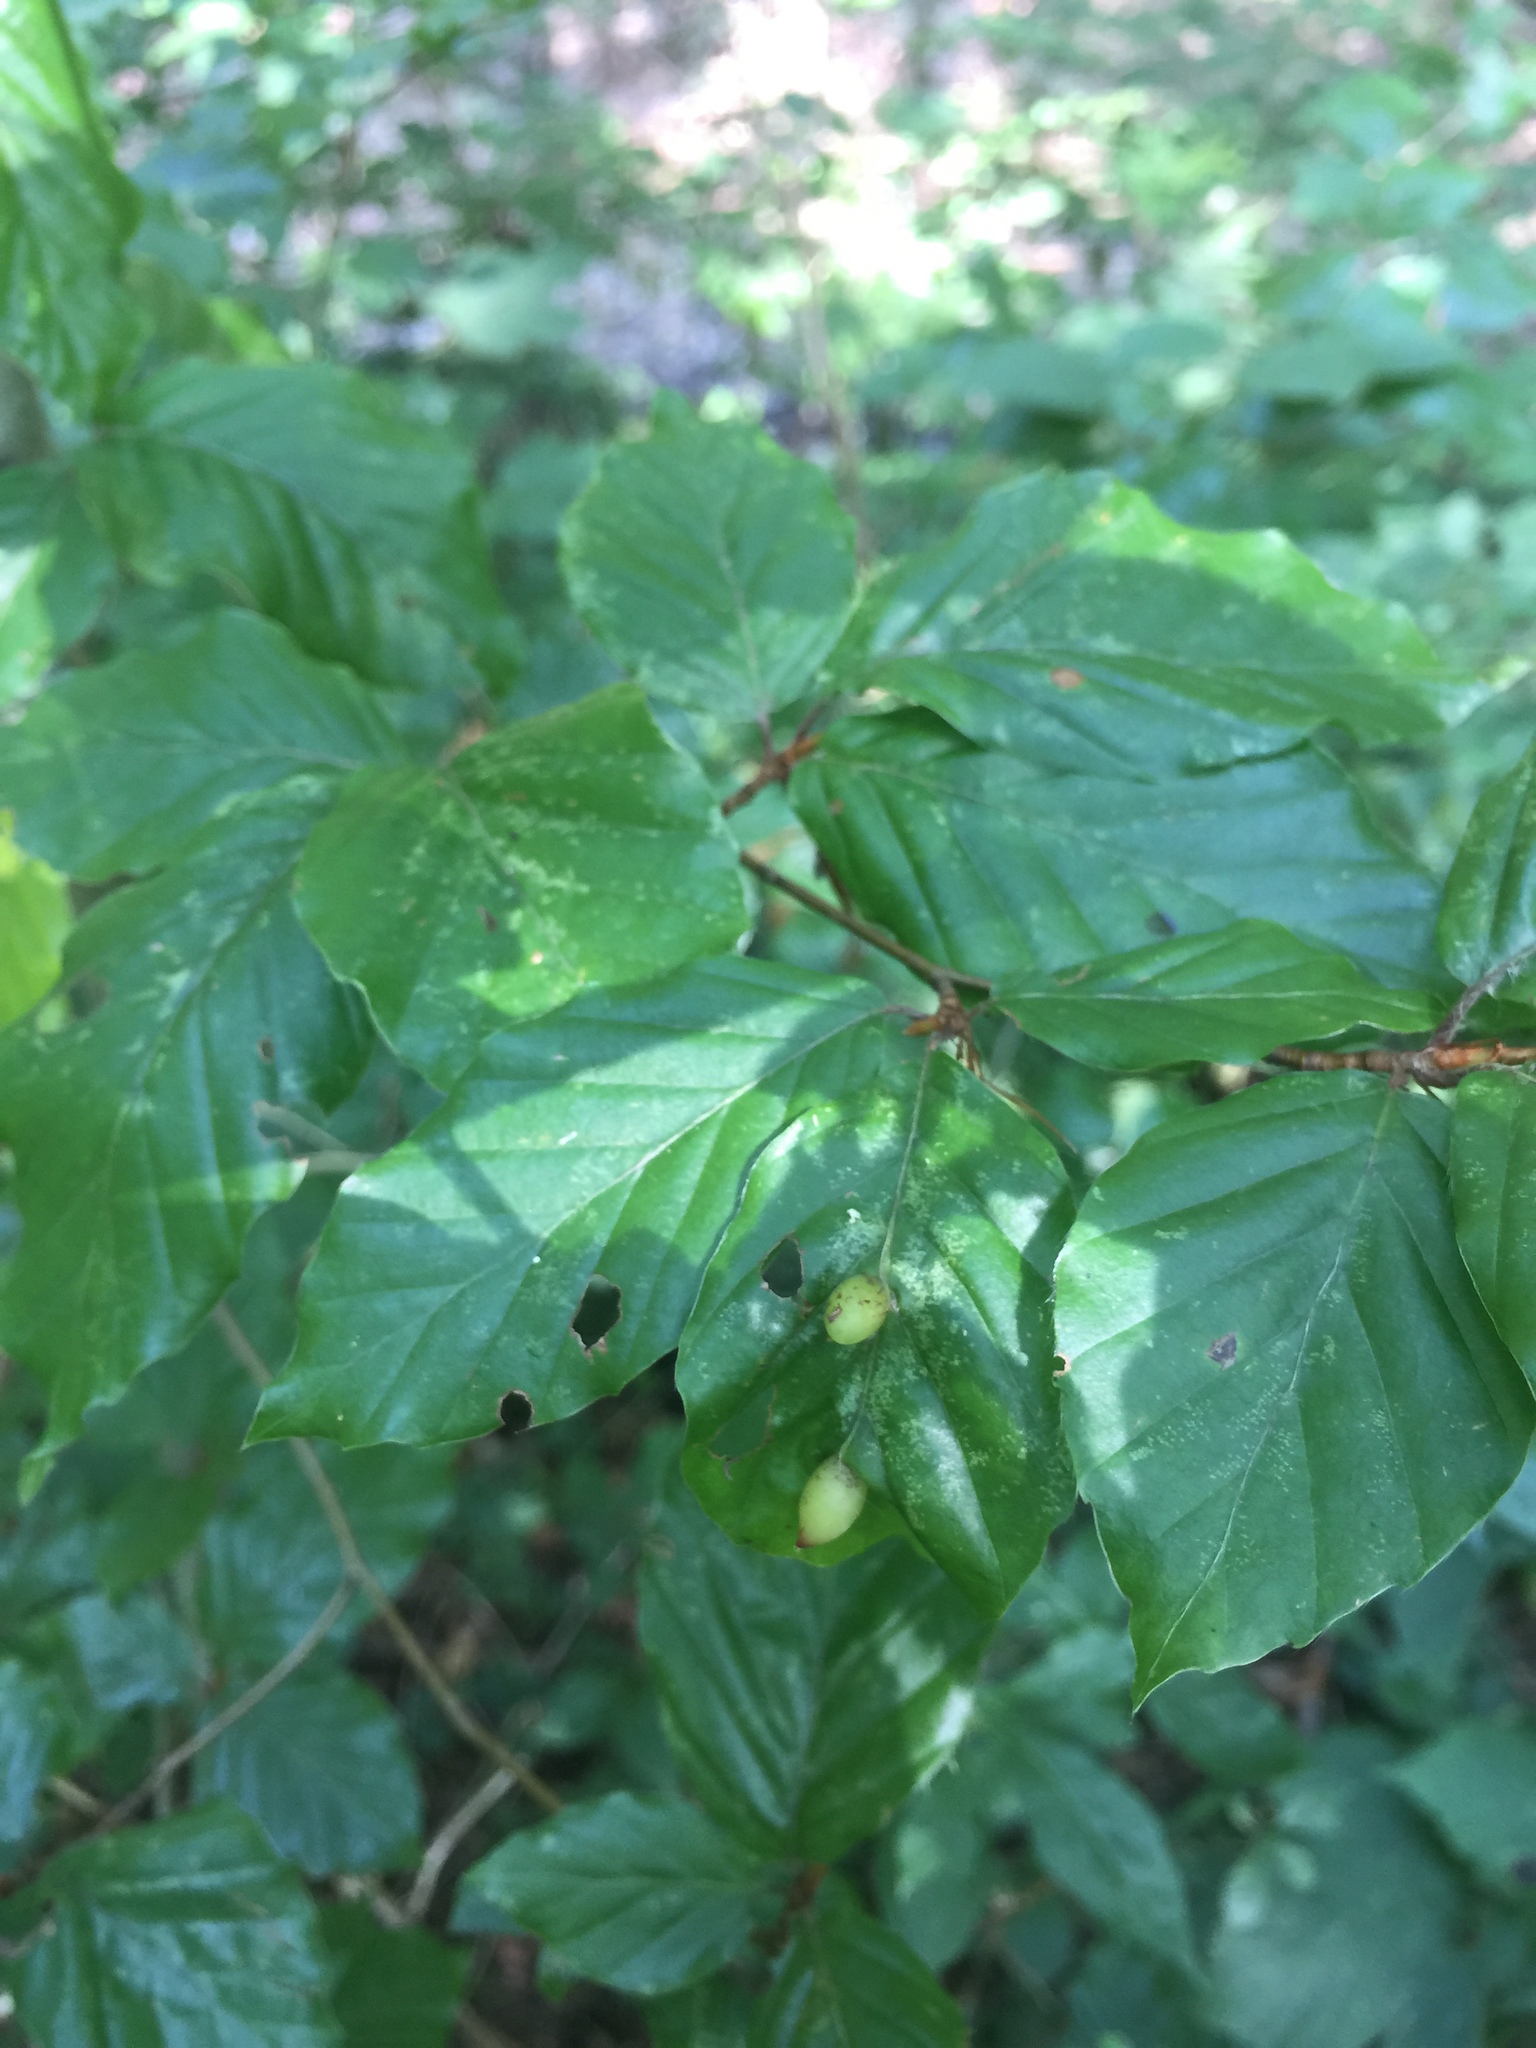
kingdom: Animalia
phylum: Arthropoda
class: Insecta
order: Diptera
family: Cecidomyiidae
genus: Mikiola
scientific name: Mikiola fagi
